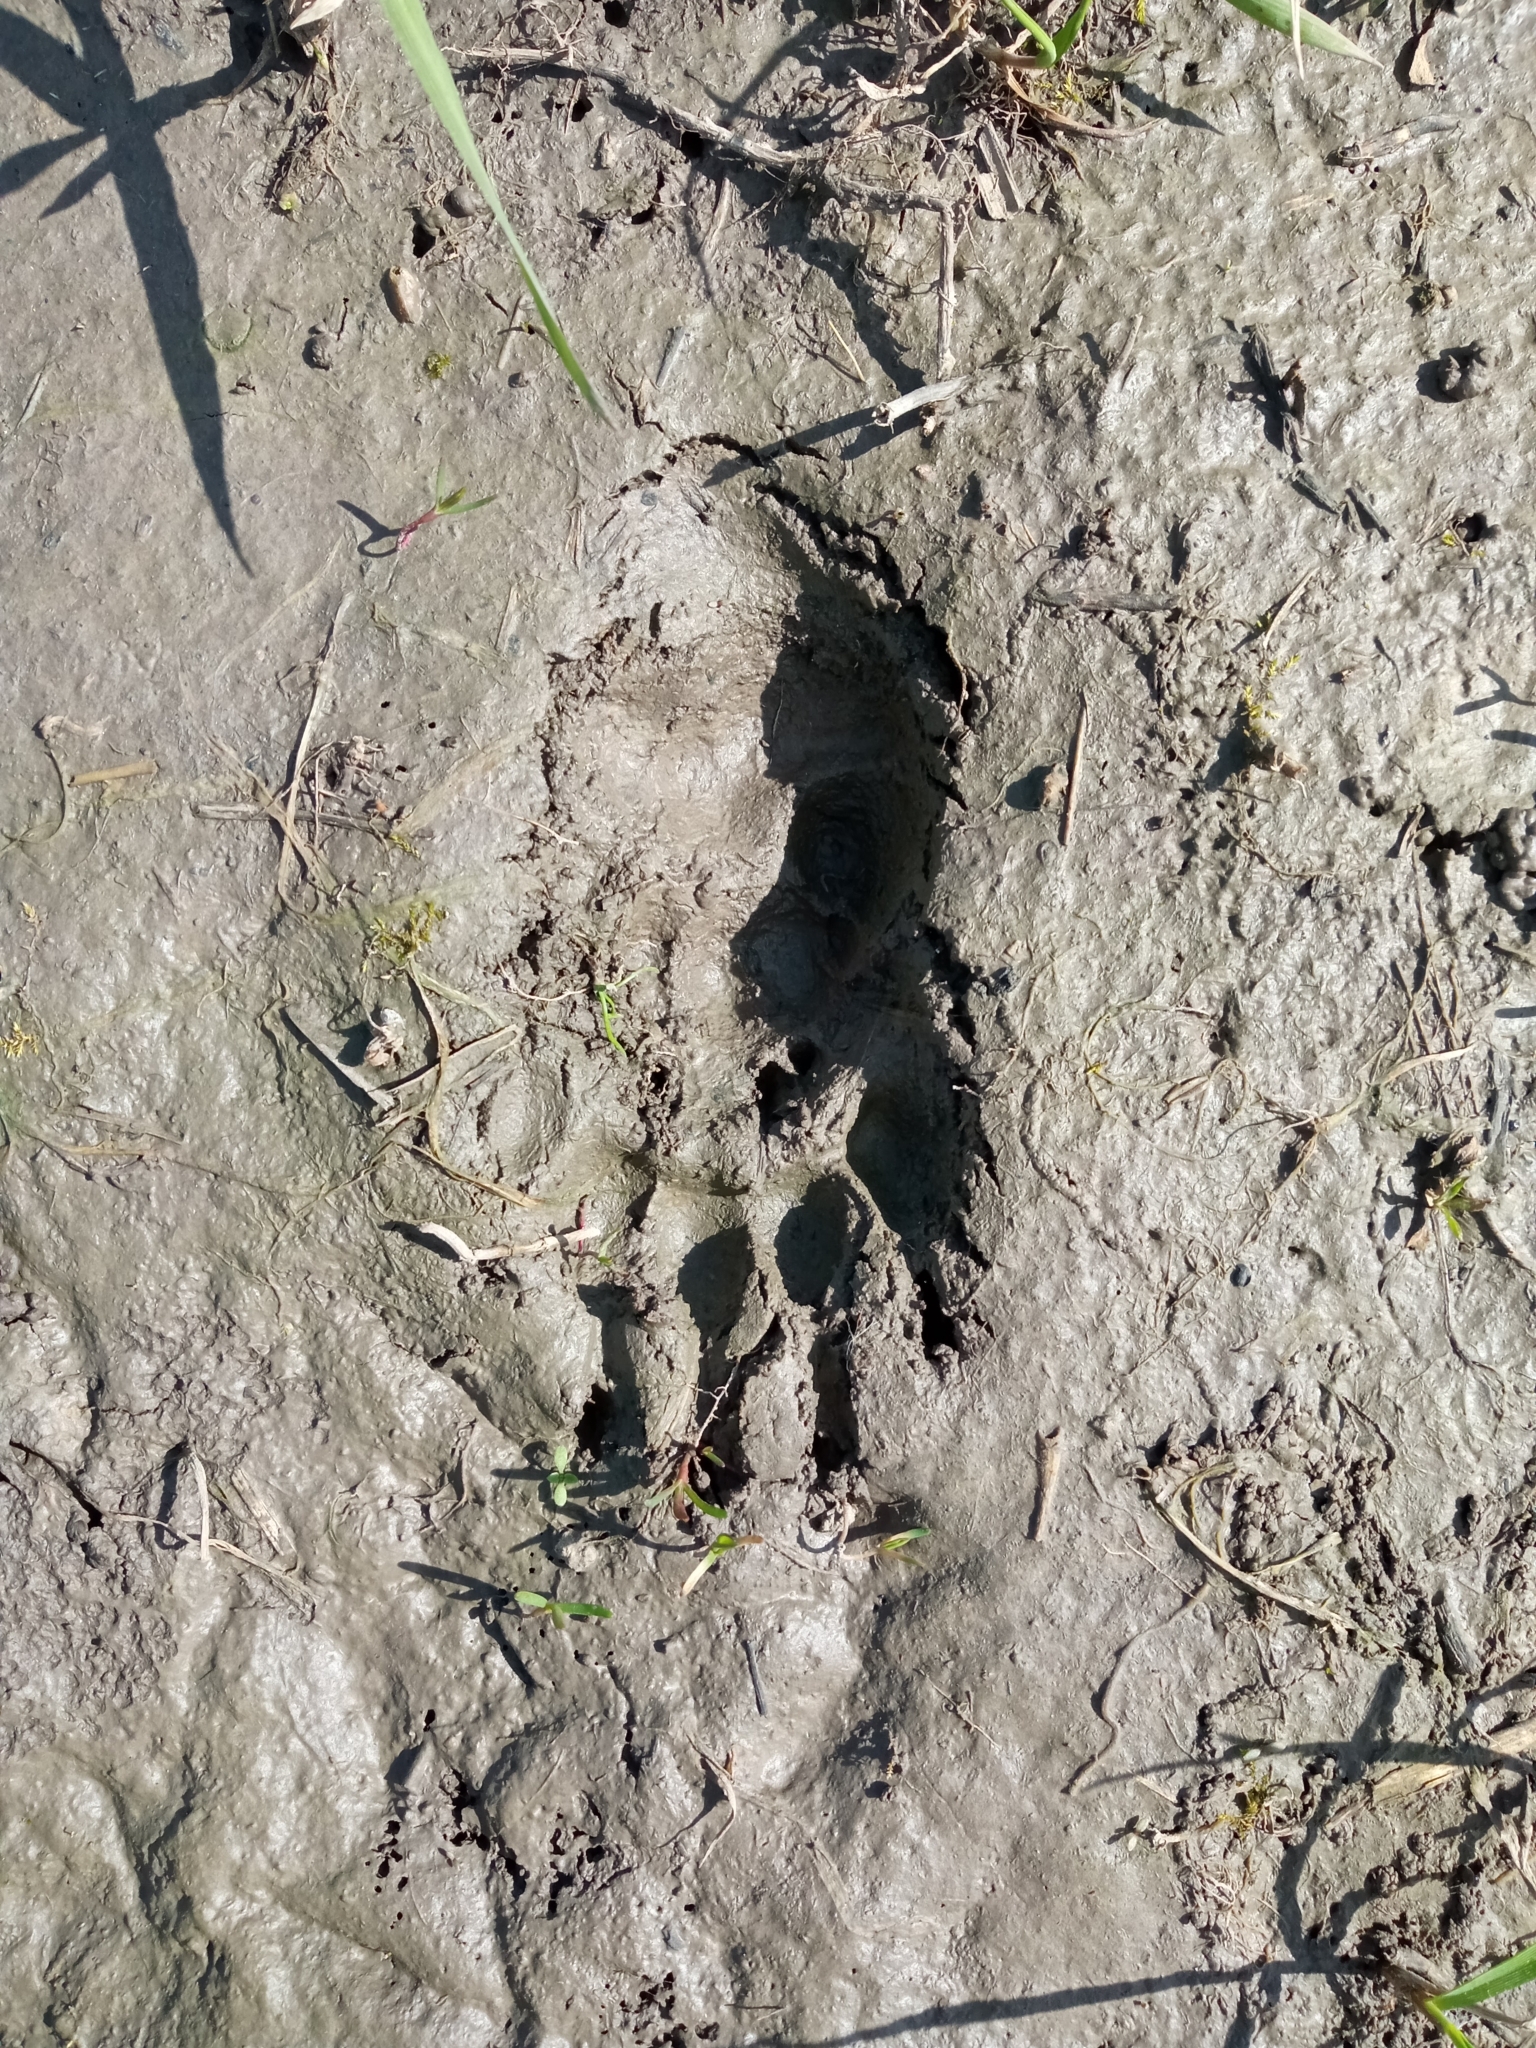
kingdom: Animalia
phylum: Chordata
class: Mammalia
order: Carnivora
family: Mustelidae
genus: Meles
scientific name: Meles meles
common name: Eurasian badger
